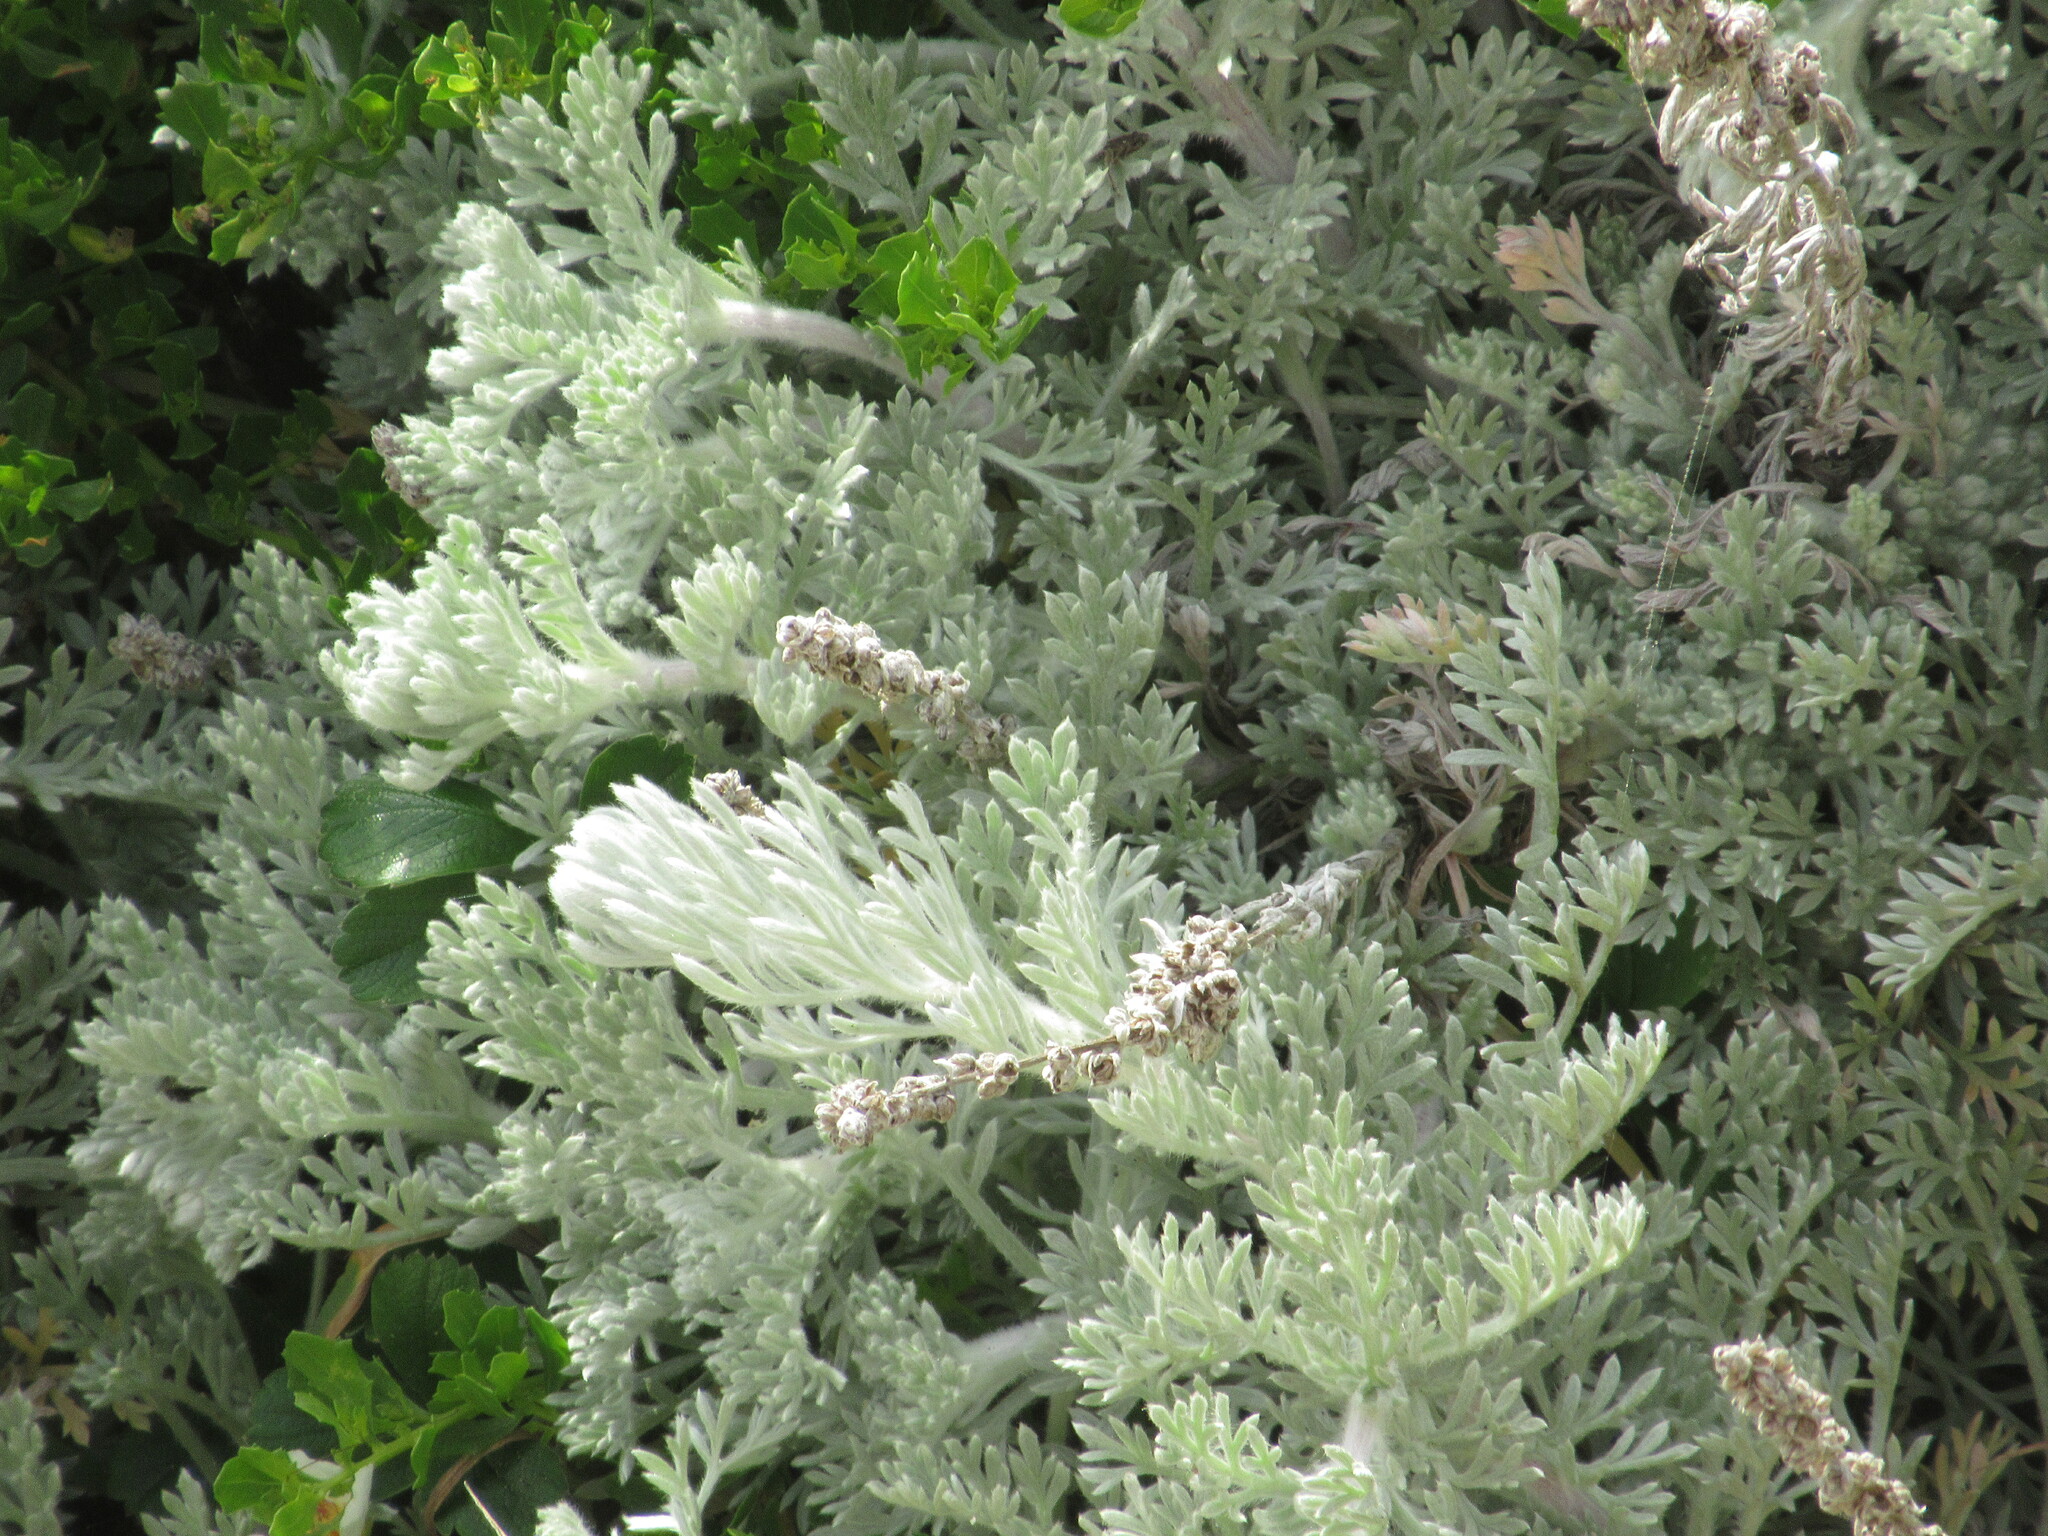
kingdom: Plantae
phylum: Tracheophyta
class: Magnoliopsida
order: Asterales
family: Asteraceae
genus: Artemisia
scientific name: Artemisia pycnocephala
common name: Coastal sagewort
